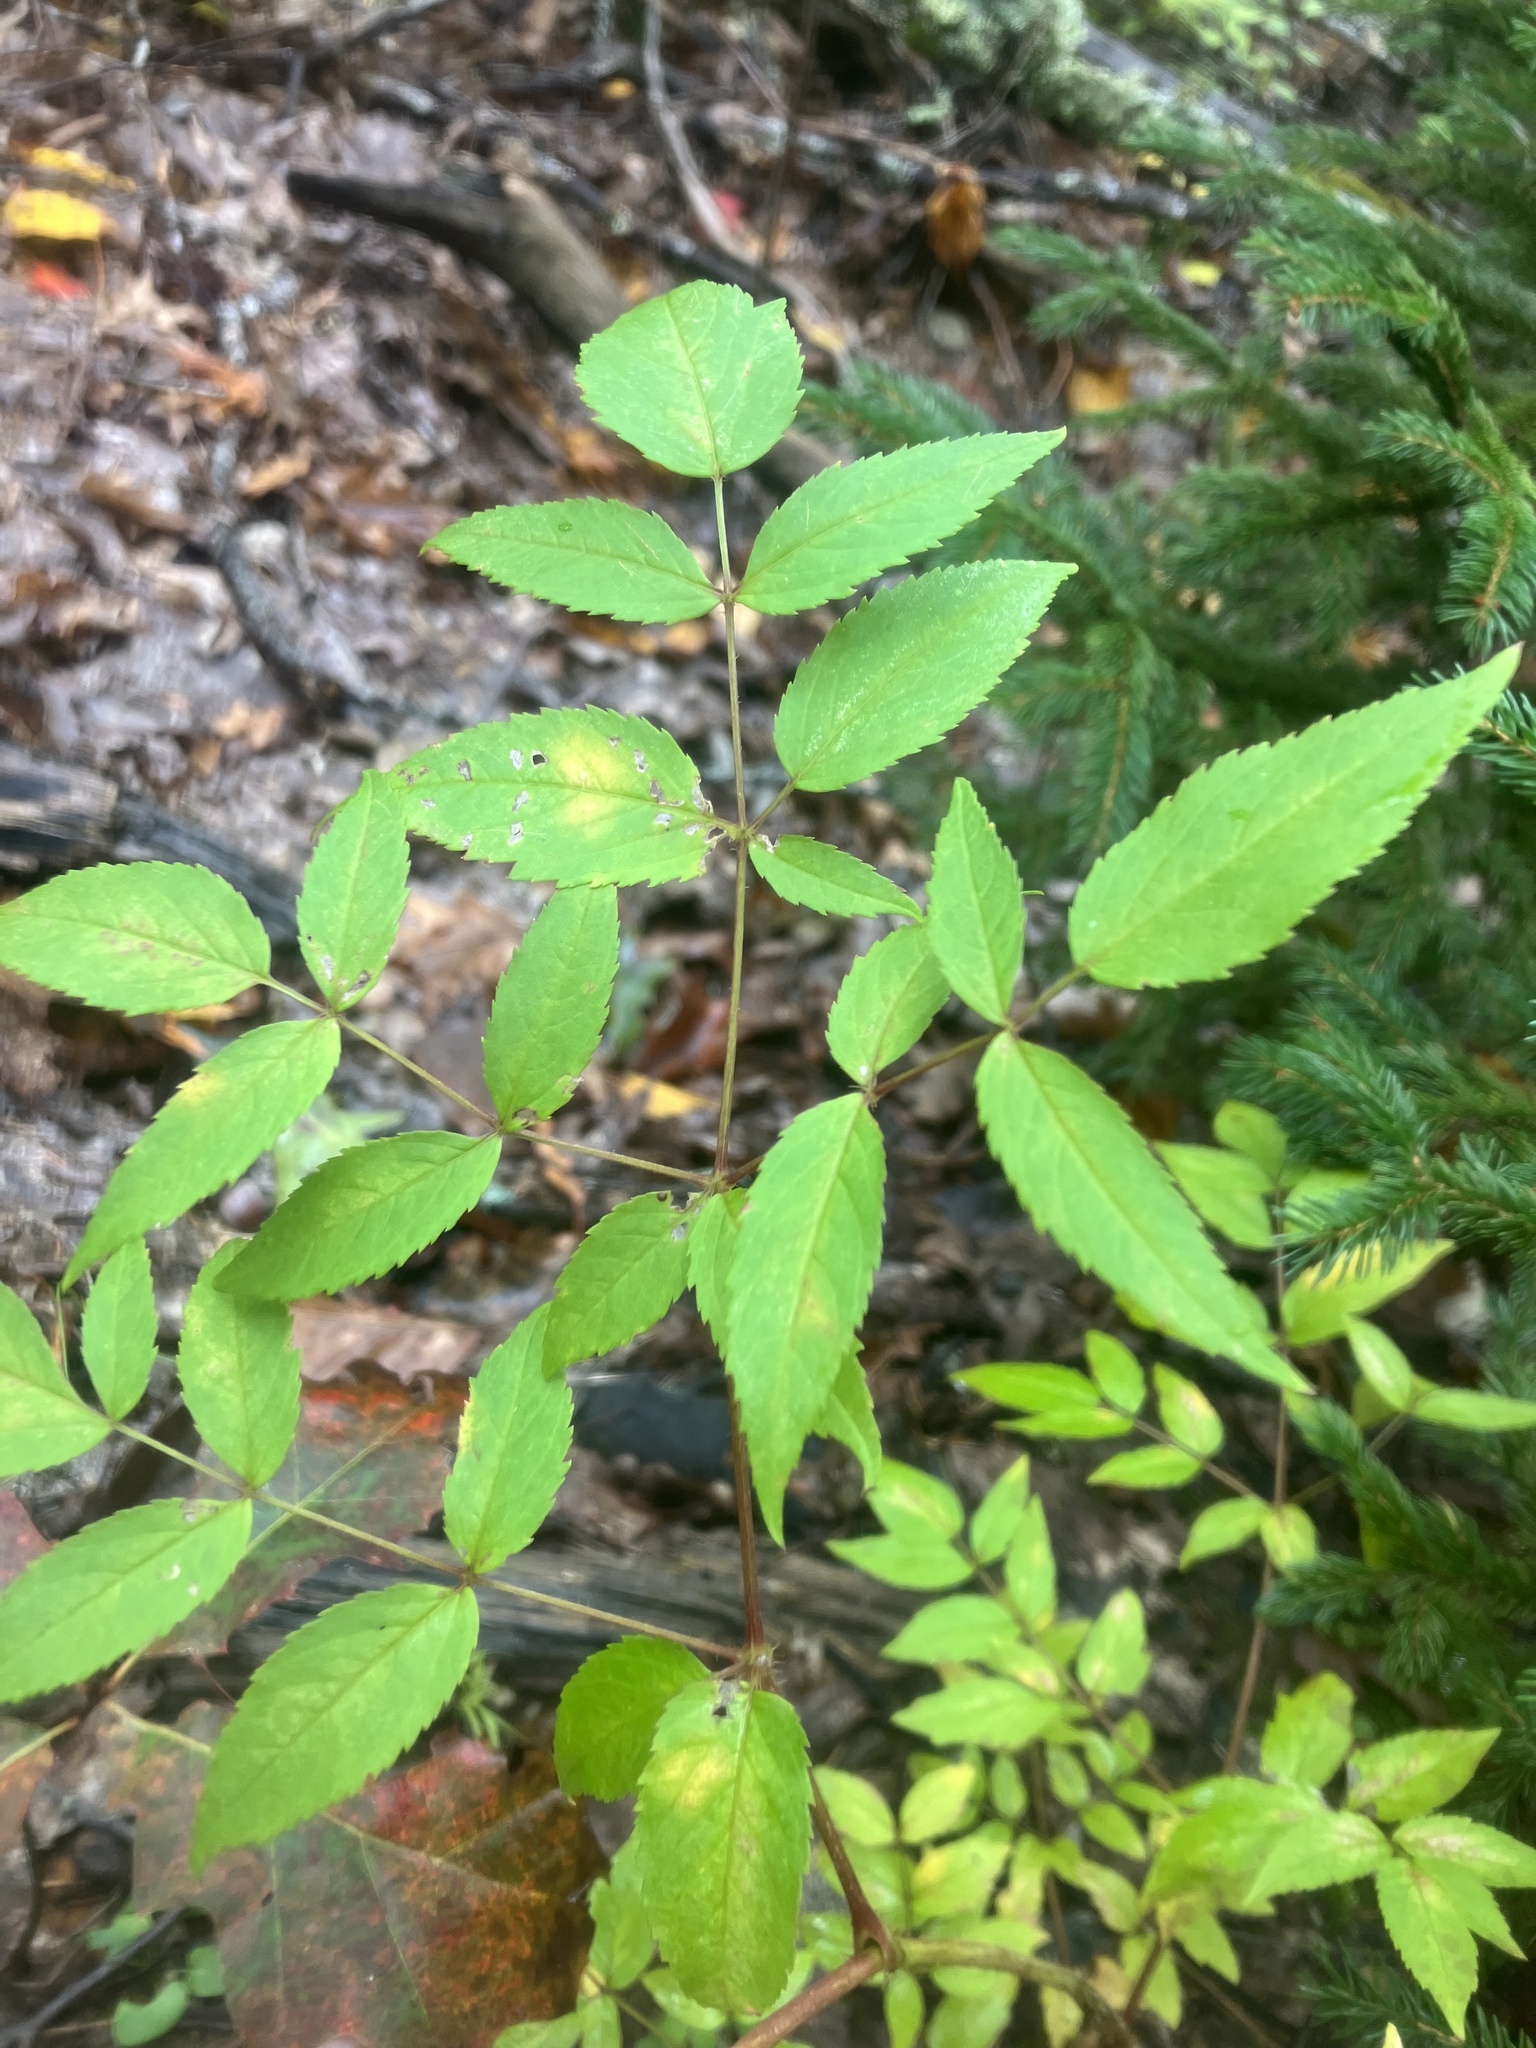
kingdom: Plantae
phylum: Tracheophyta
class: Magnoliopsida
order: Apiales
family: Araliaceae
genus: Aralia
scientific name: Aralia hispida
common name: Bristly sarsaparilla
